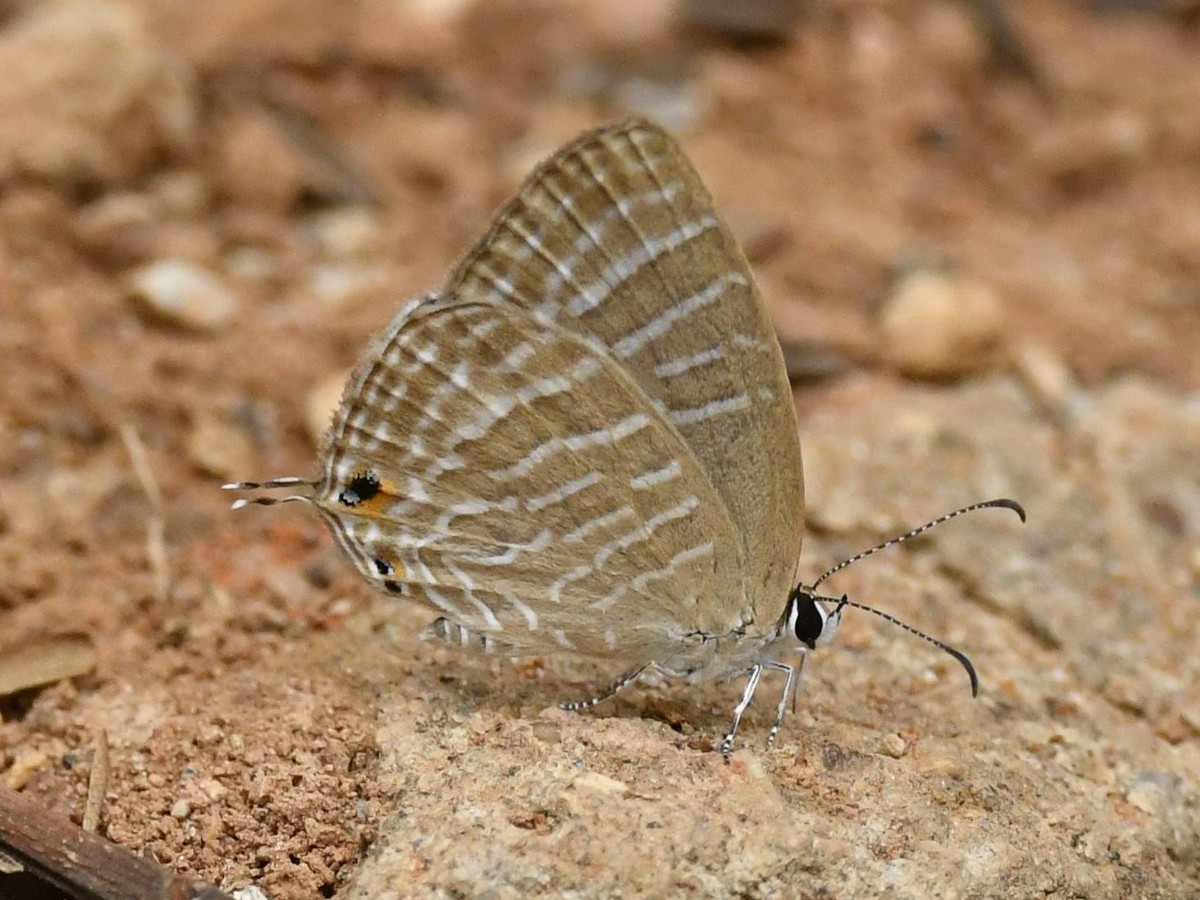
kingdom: Animalia
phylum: Arthropoda
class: Insecta
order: Lepidoptera
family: Lycaenidae
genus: Jamides
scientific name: Jamides celeno
